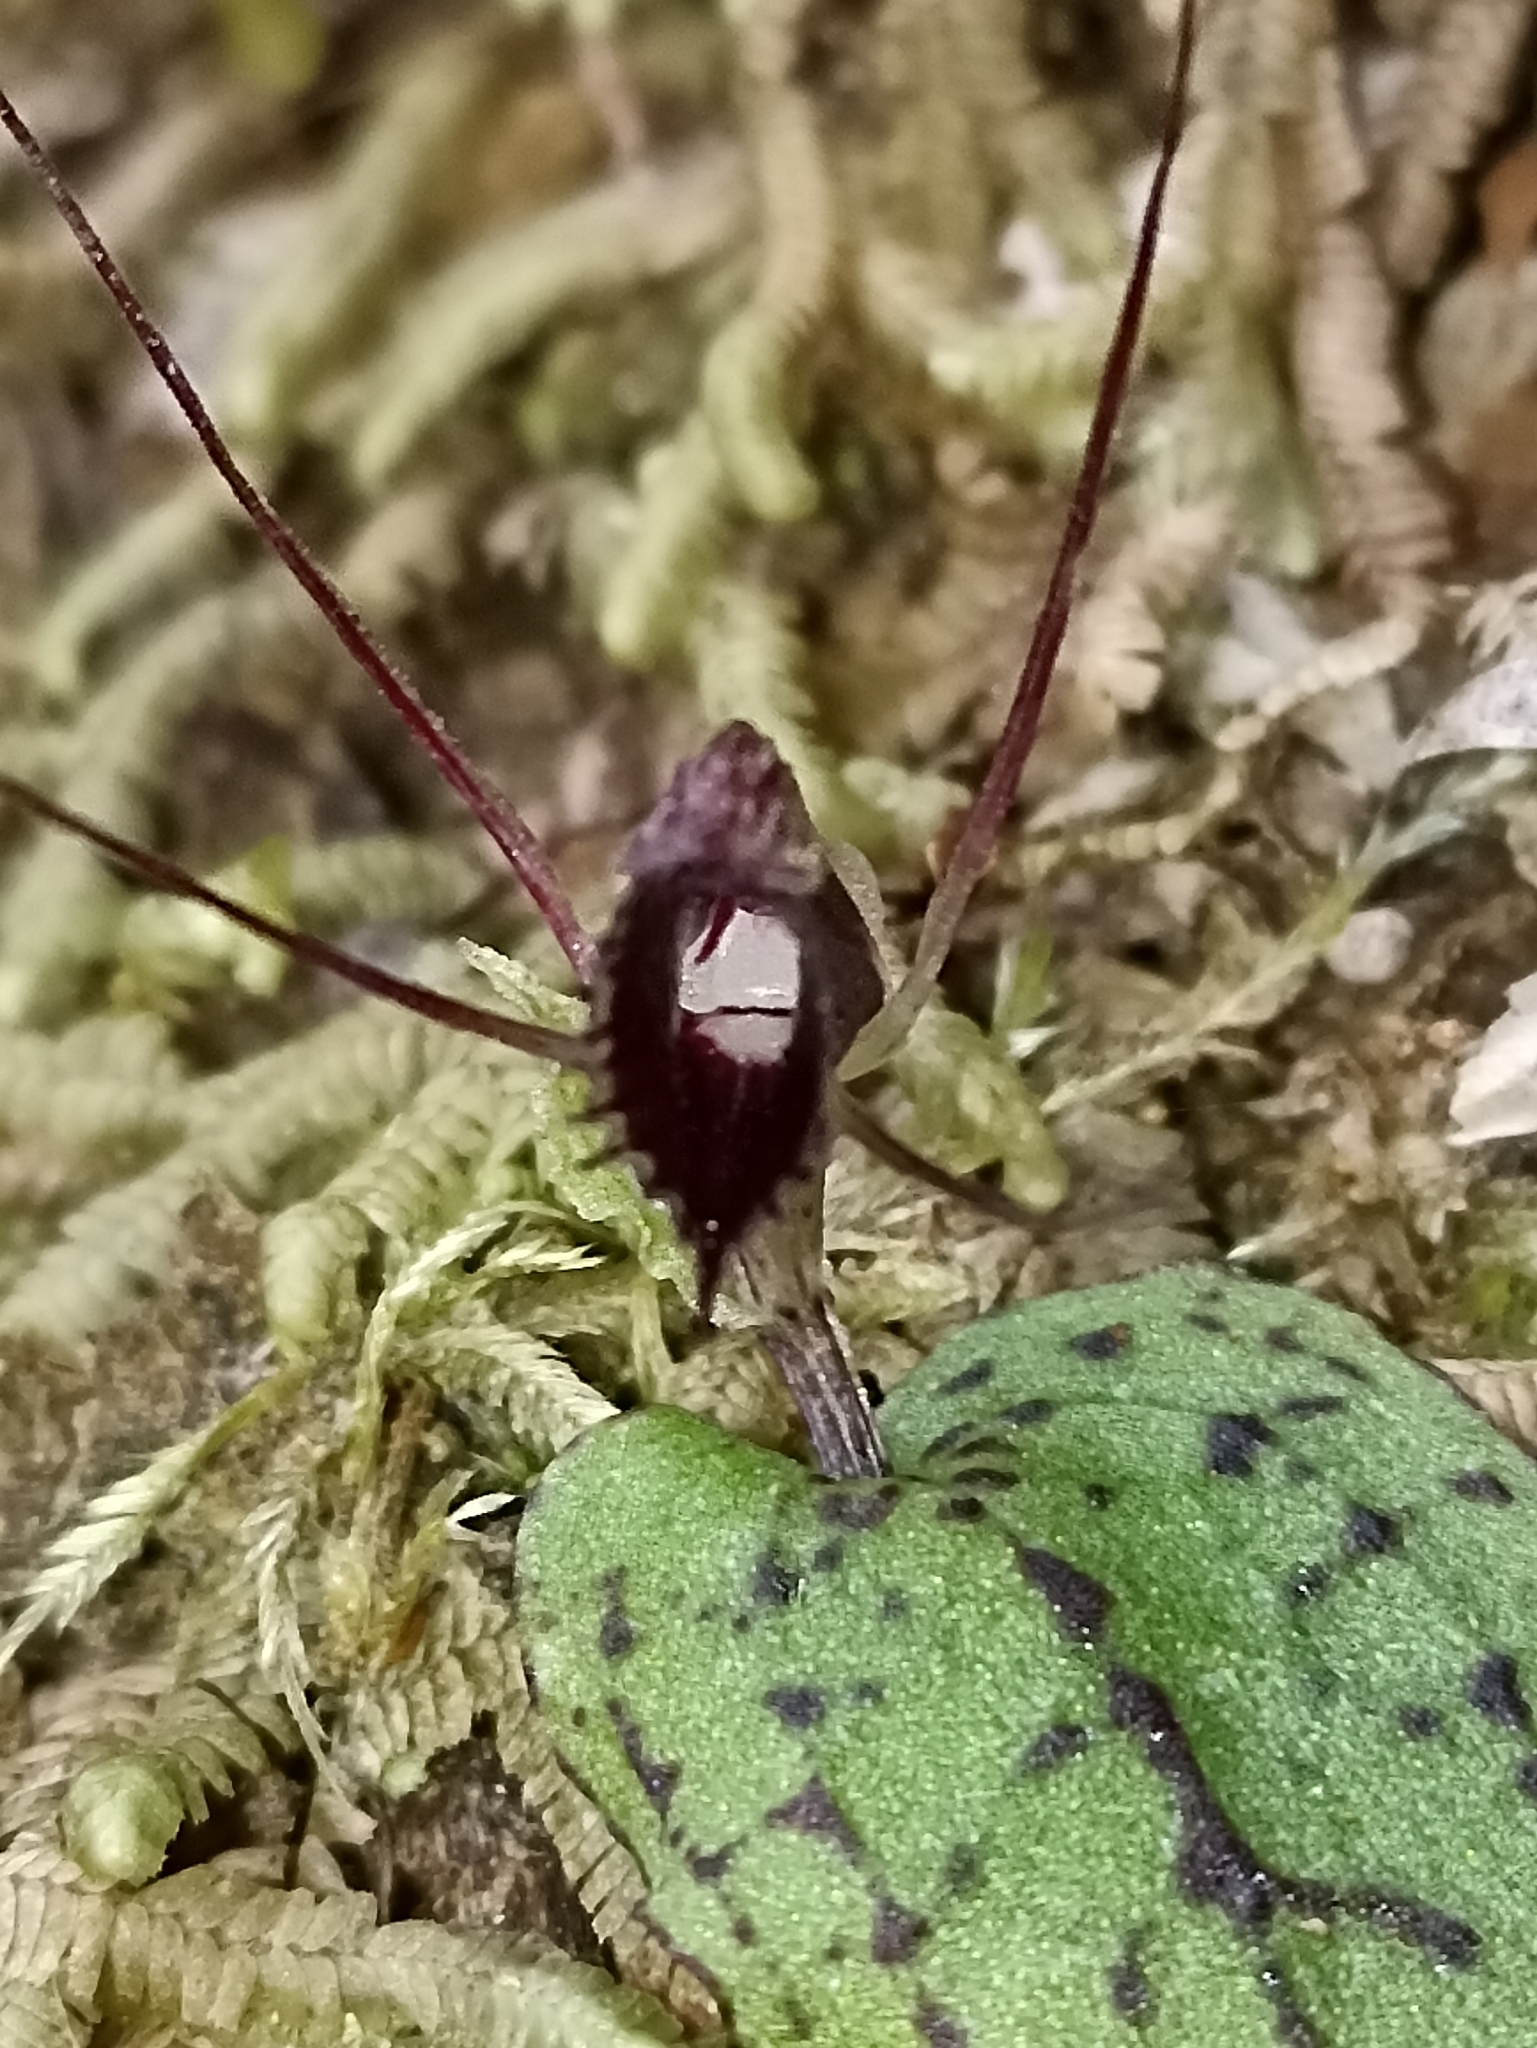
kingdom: Plantae
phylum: Tracheophyta
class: Liliopsida
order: Asparagales
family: Orchidaceae
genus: Corybas
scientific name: Corybas oblongus
